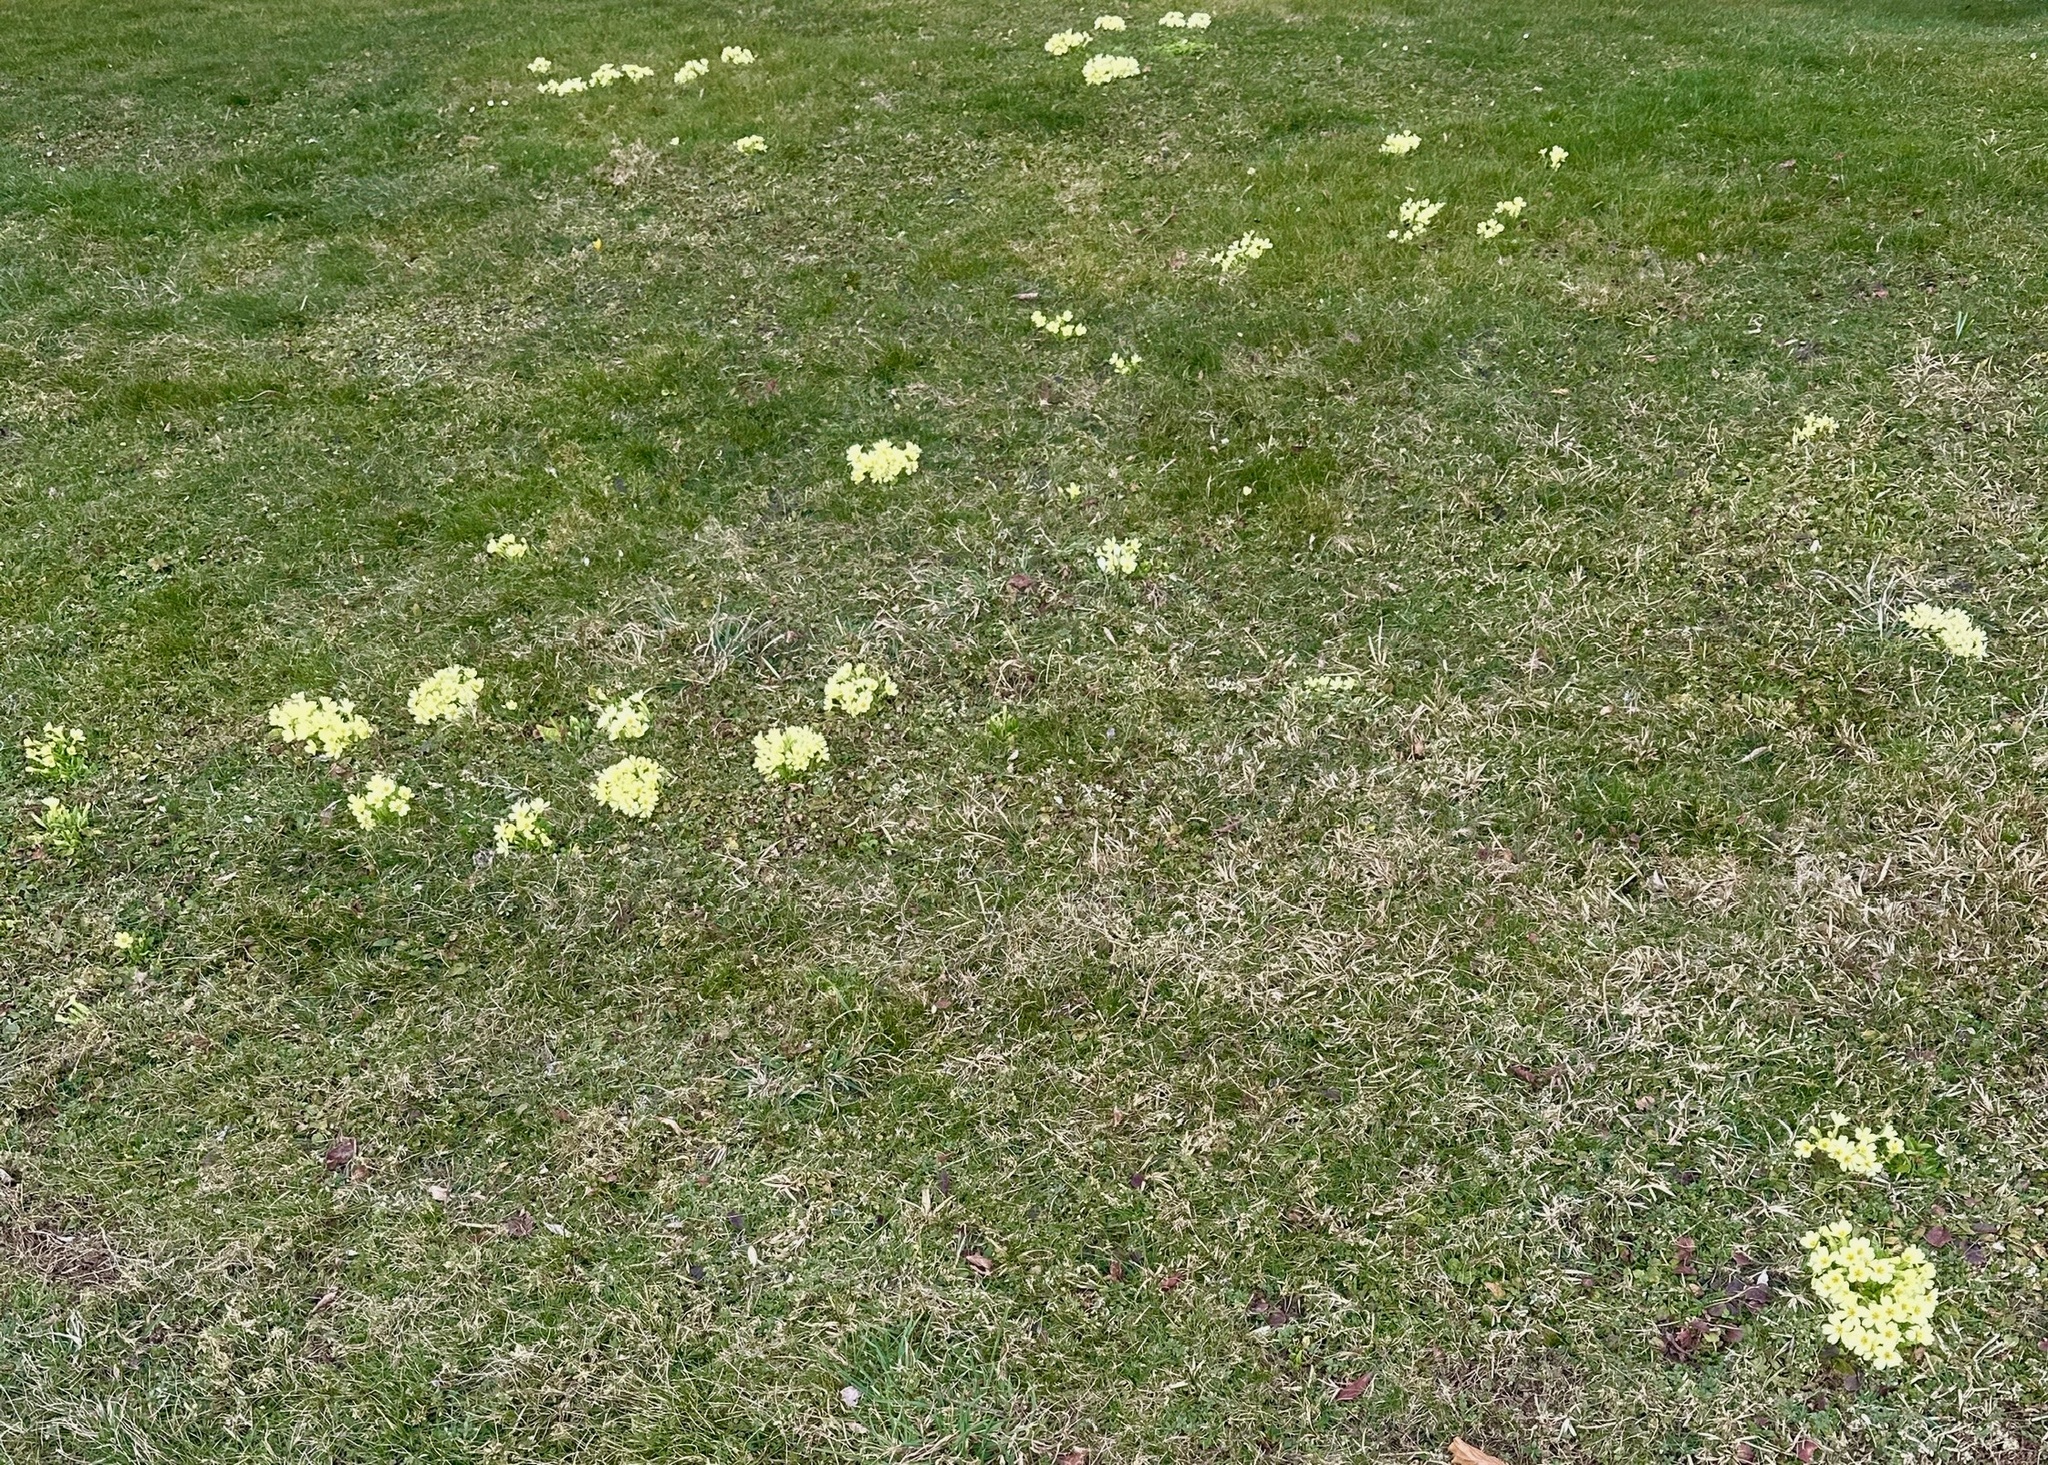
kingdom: Plantae
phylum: Tracheophyta
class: Magnoliopsida
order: Ericales
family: Primulaceae
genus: Primula
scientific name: Primula vulgaris
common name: Primrose
